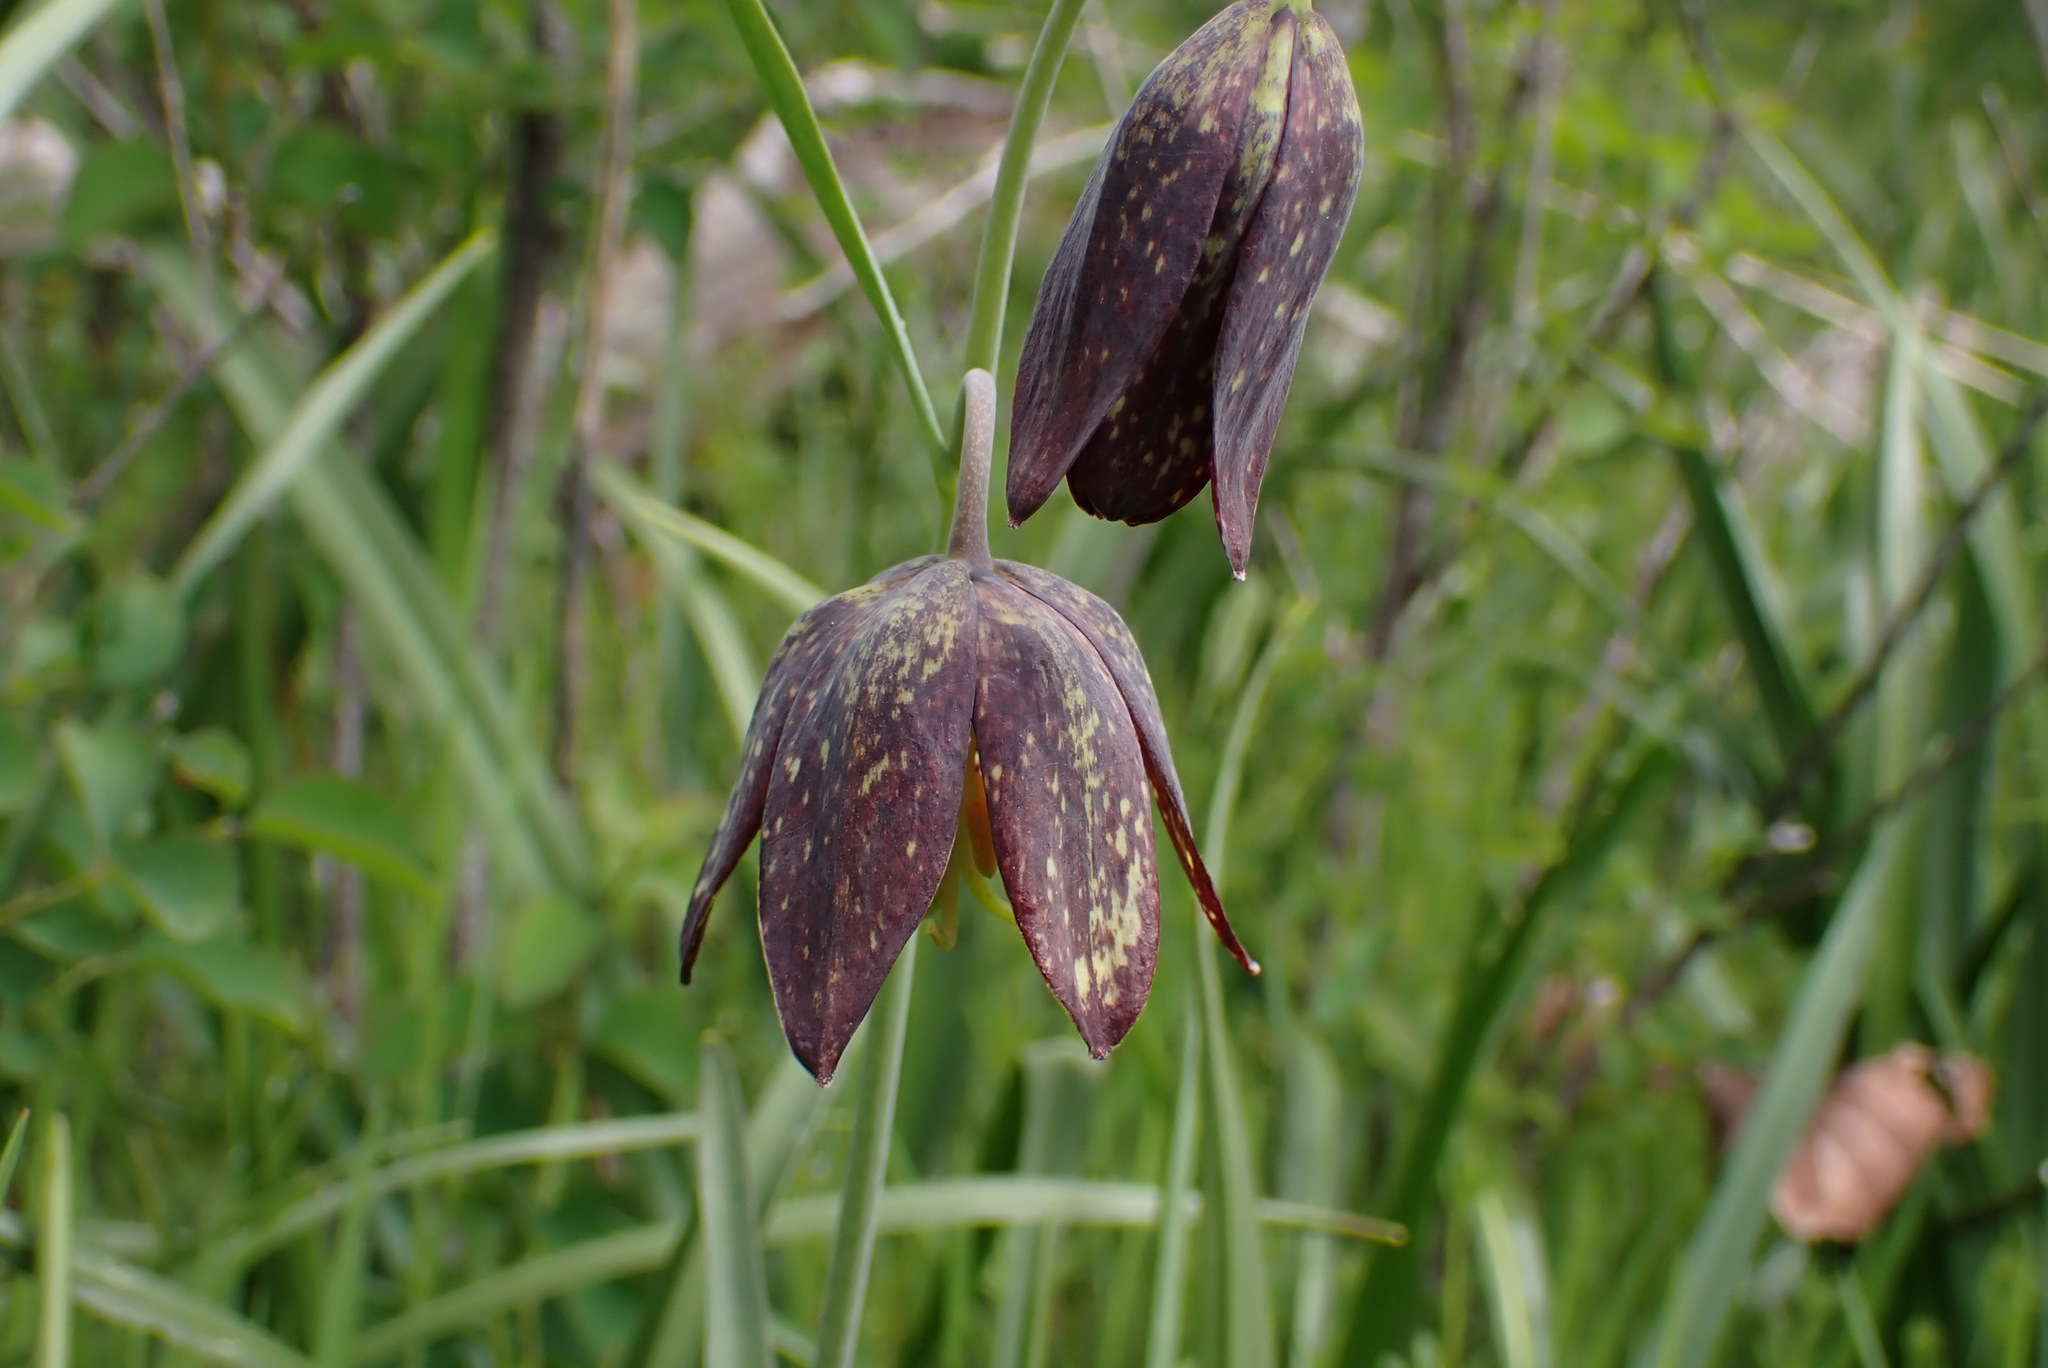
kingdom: Plantae
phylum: Tracheophyta
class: Liliopsida
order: Liliales
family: Liliaceae
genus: Fritillaria
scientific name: Fritillaria affinis
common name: Ojai fritillary
